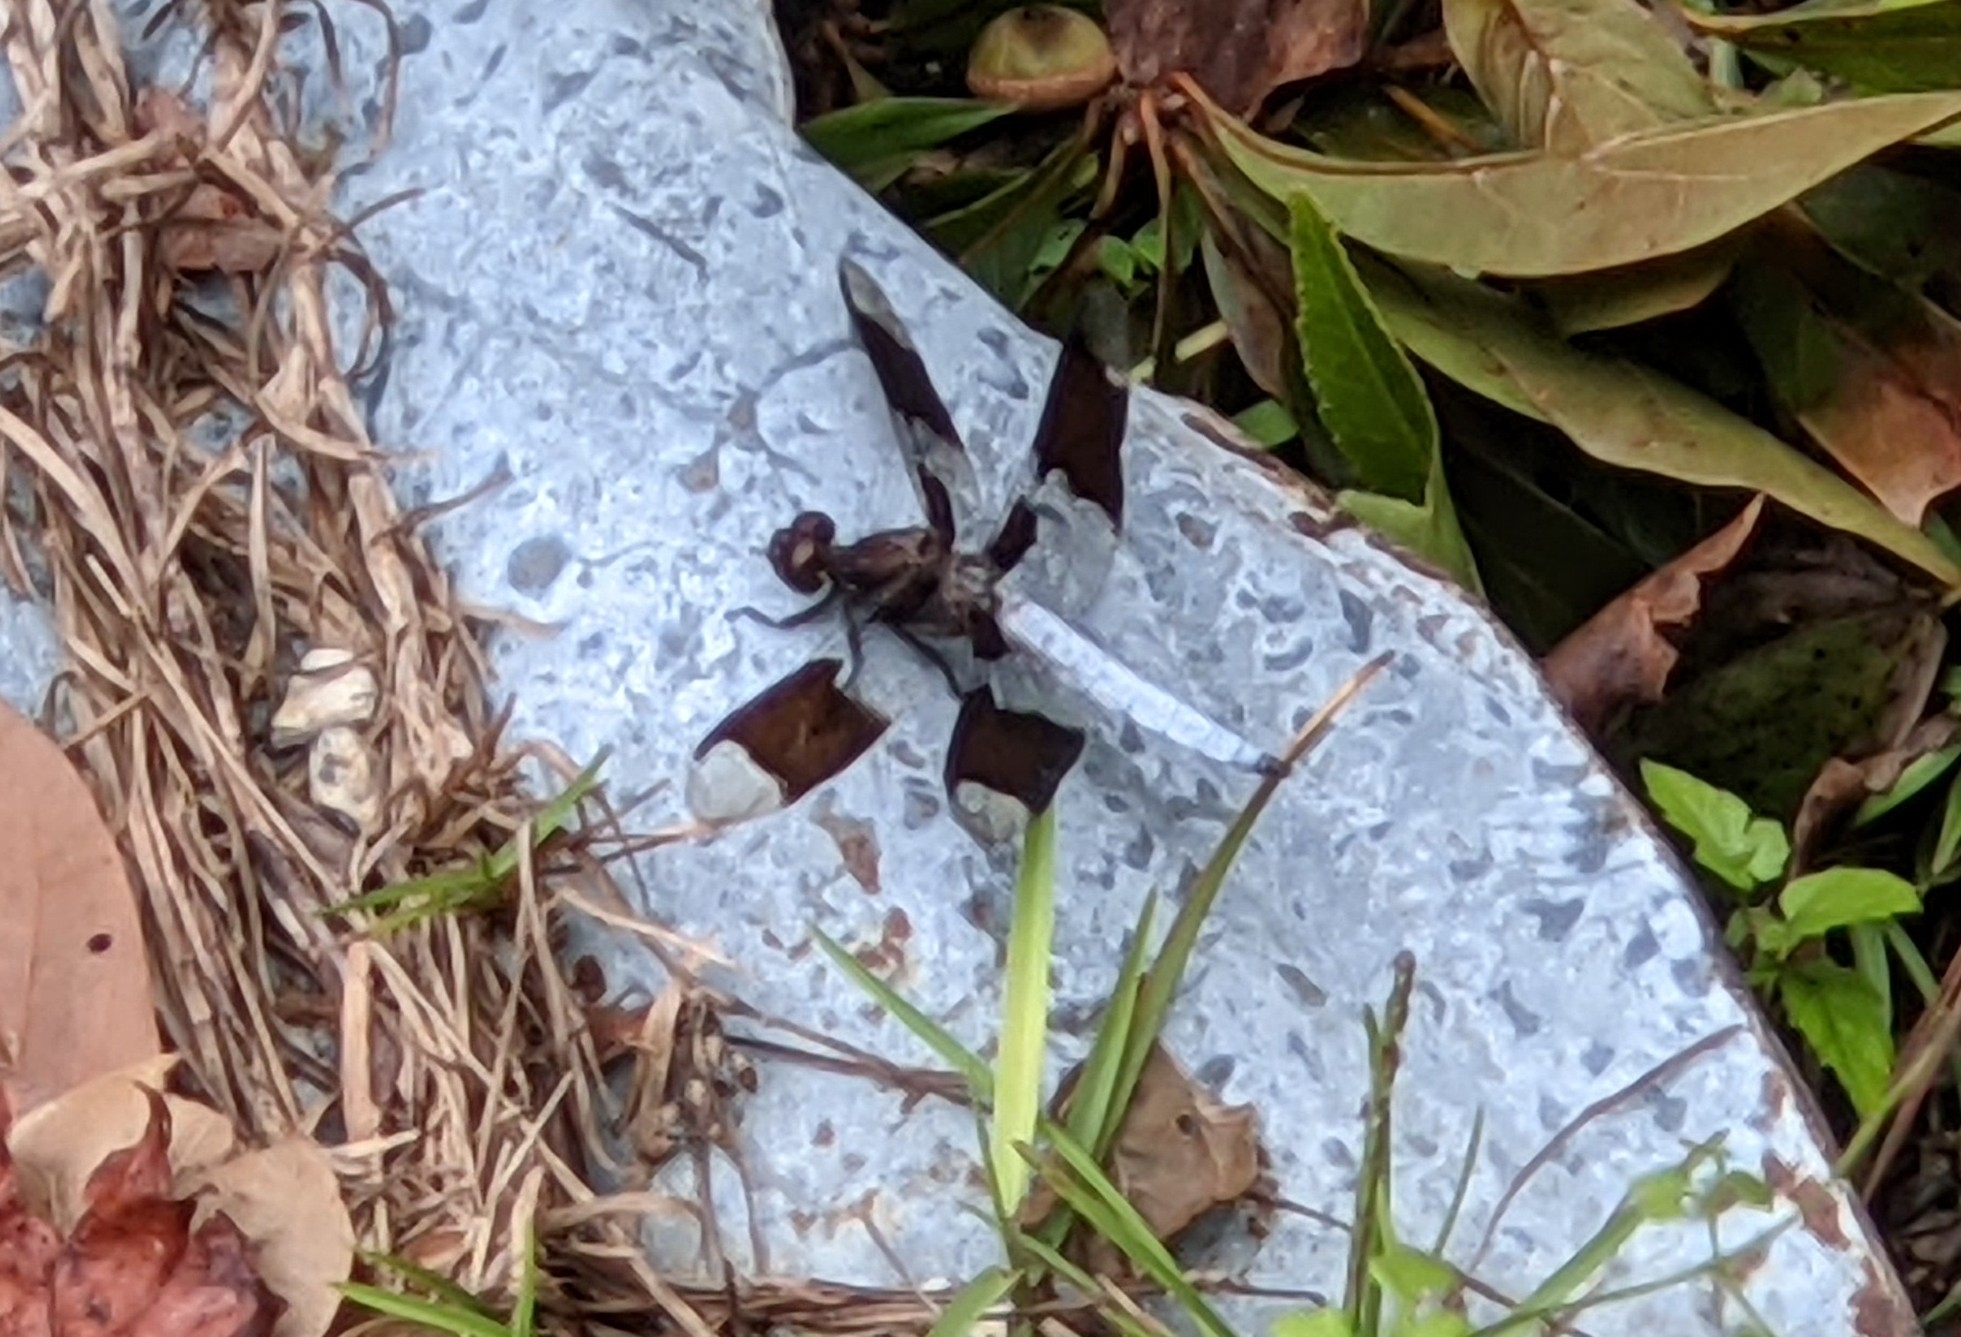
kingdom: Animalia
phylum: Arthropoda
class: Insecta
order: Odonata
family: Libellulidae
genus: Plathemis
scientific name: Plathemis lydia
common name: Common whitetail
